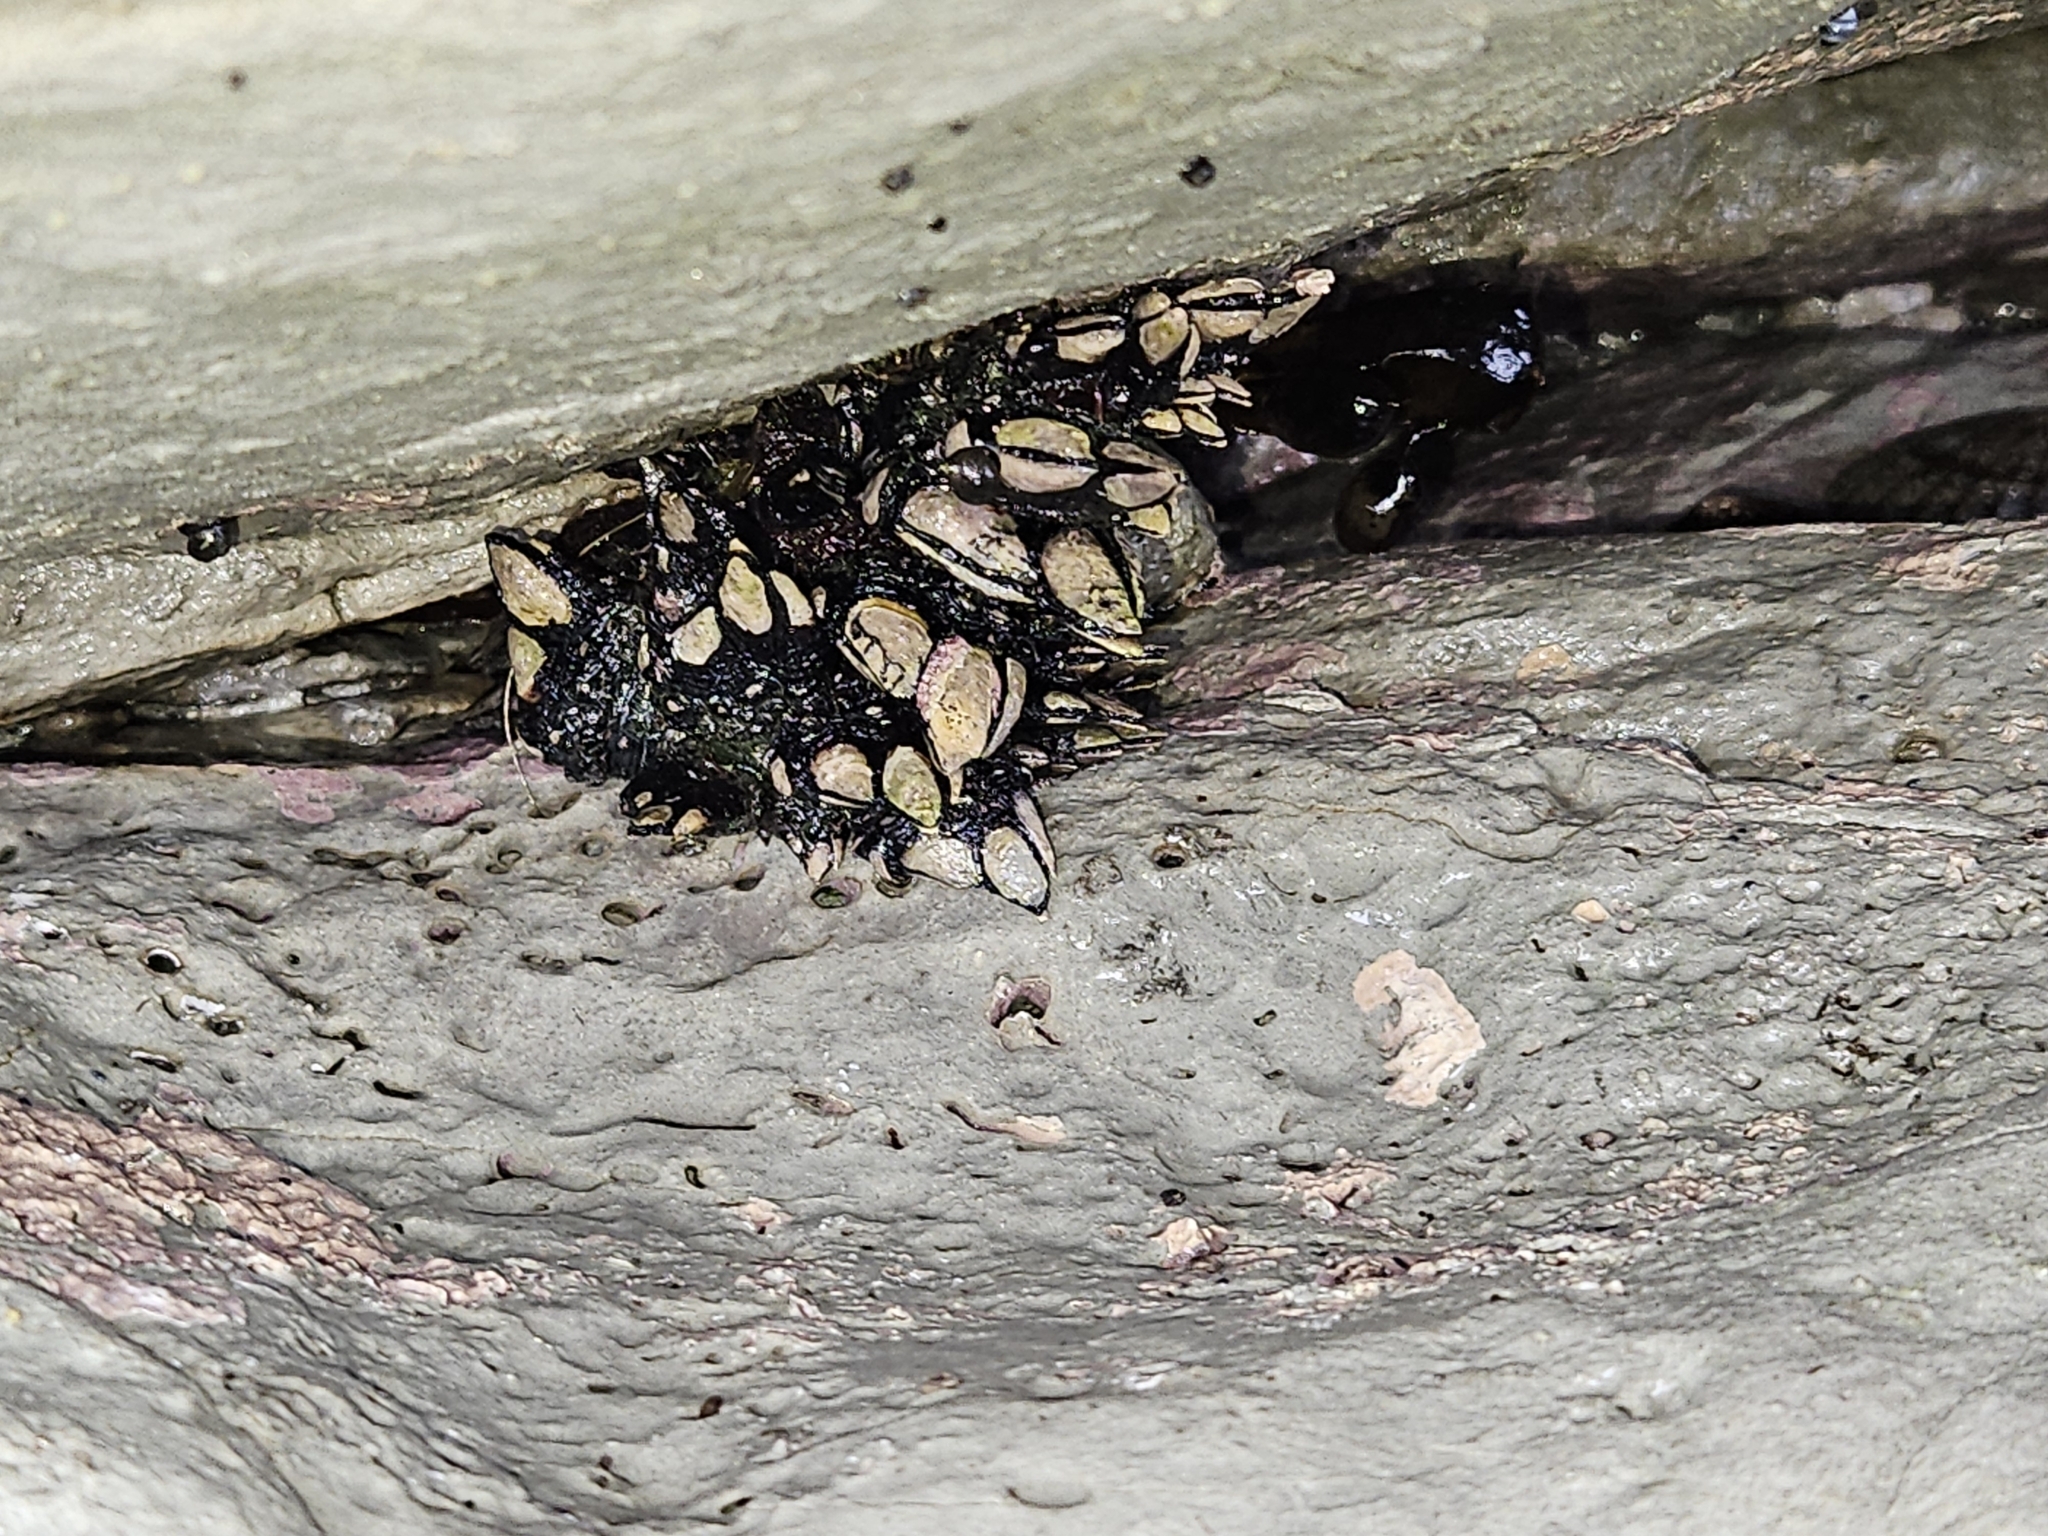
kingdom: Animalia
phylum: Arthropoda
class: Maxillopoda
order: Pedunculata
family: Calanticidae
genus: Calantica
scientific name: Calantica spinosa
